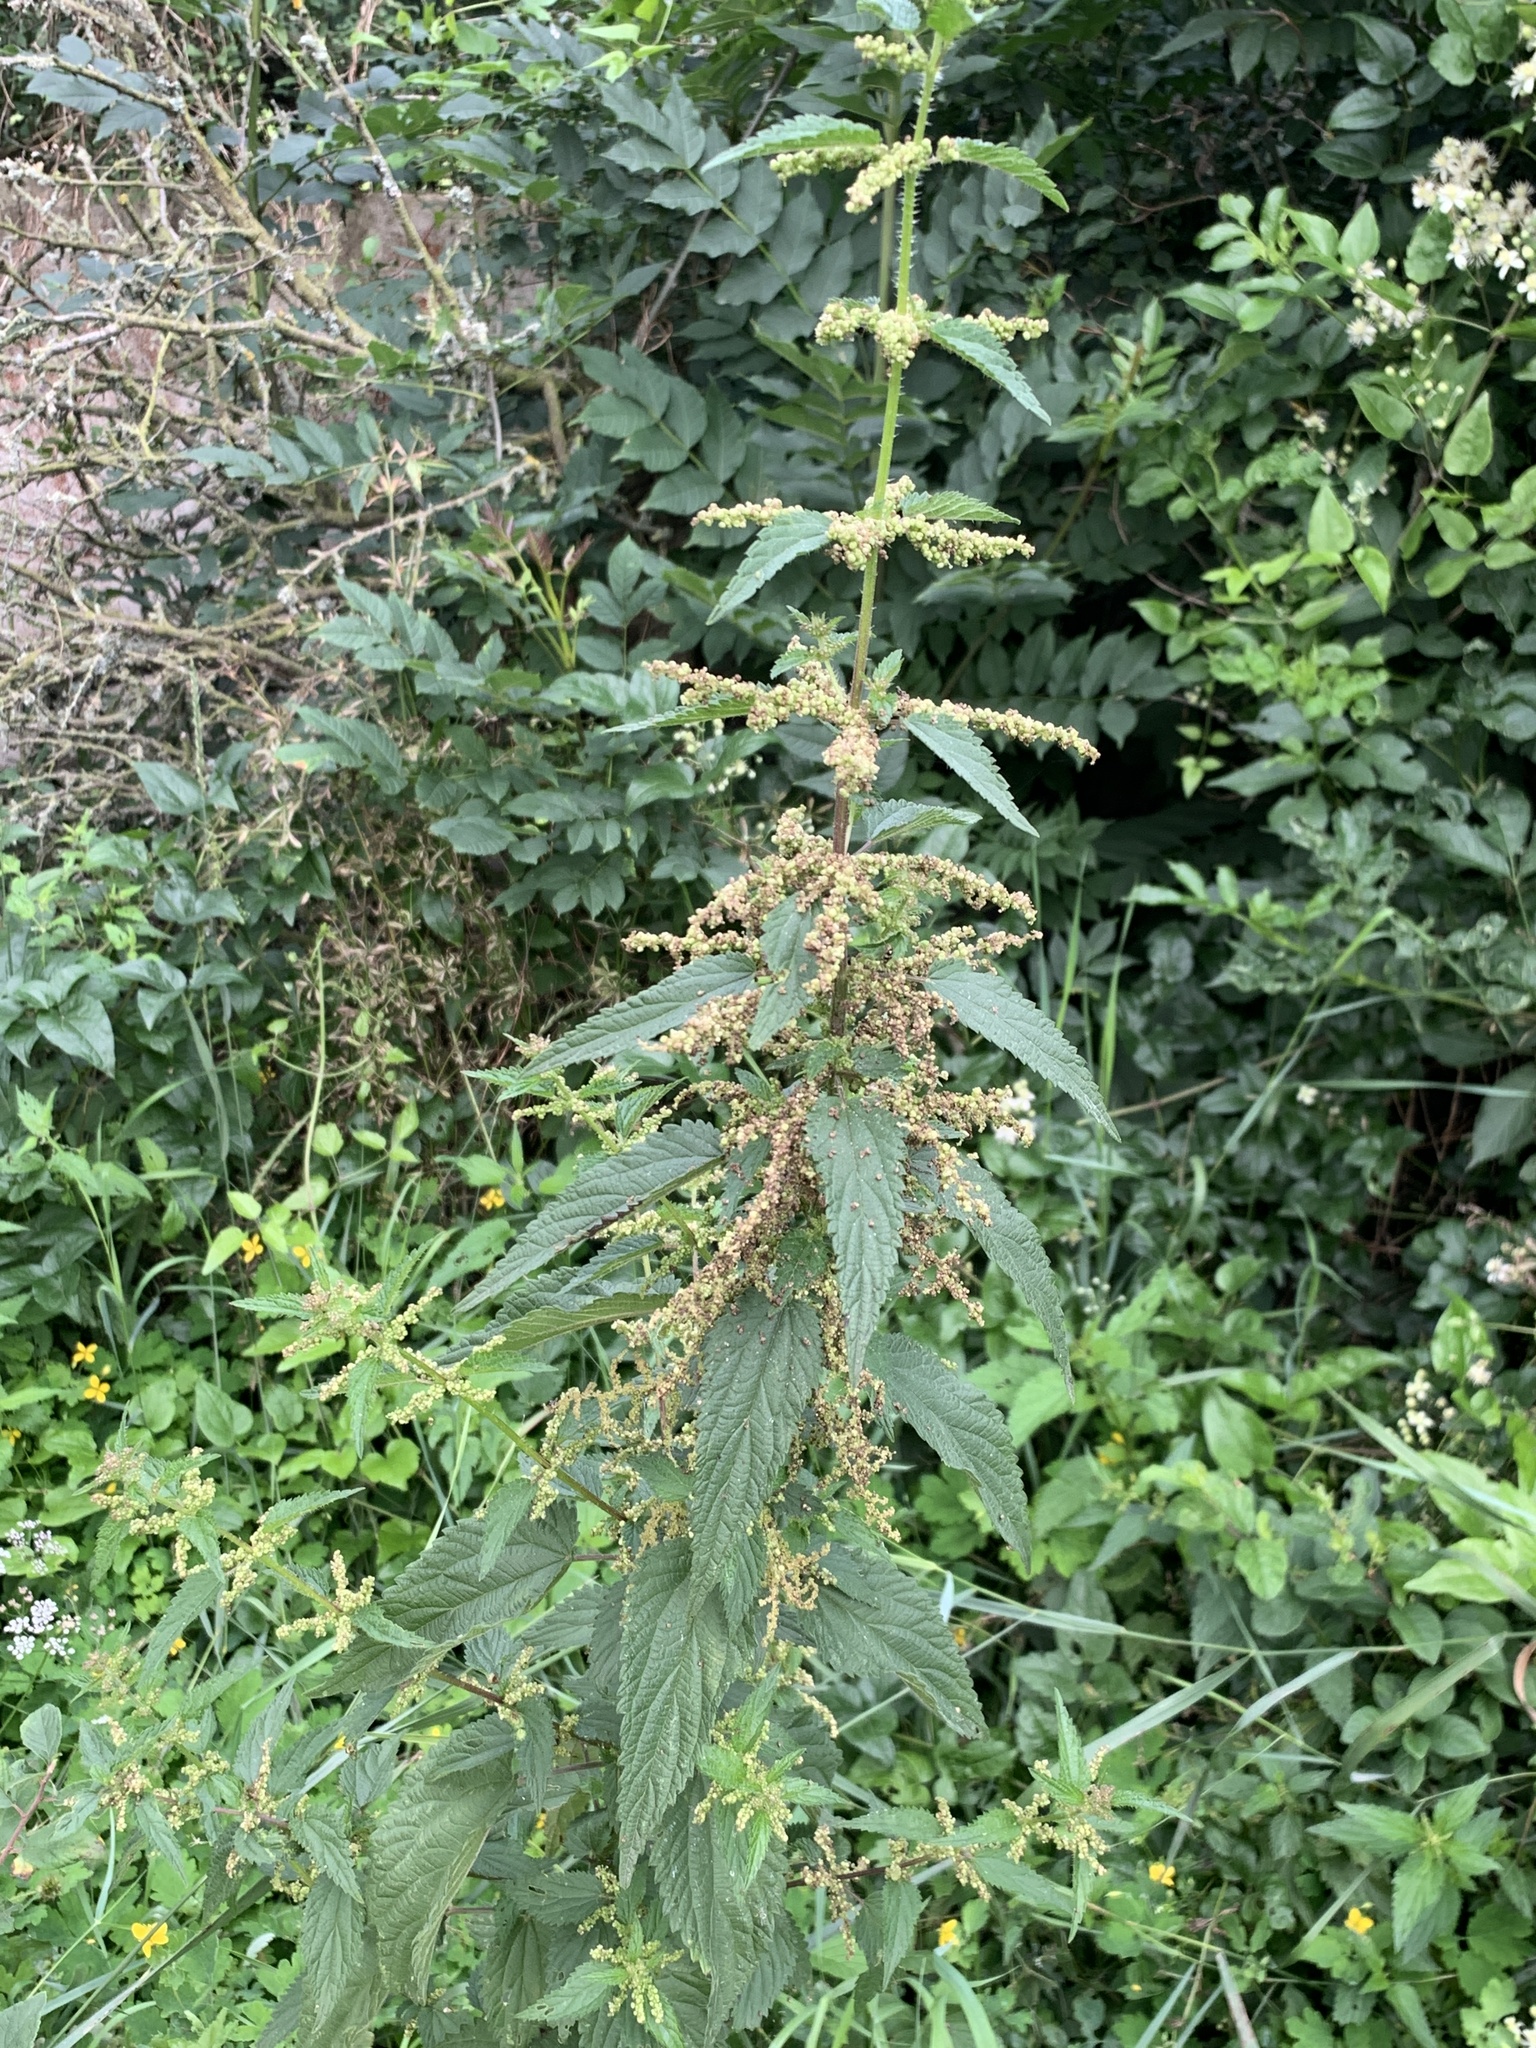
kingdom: Plantae
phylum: Tracheophyta
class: Magnoliopsida
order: Rosales
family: Urticaceae
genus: Urtica
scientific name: Urtica dioica
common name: Common nettle
